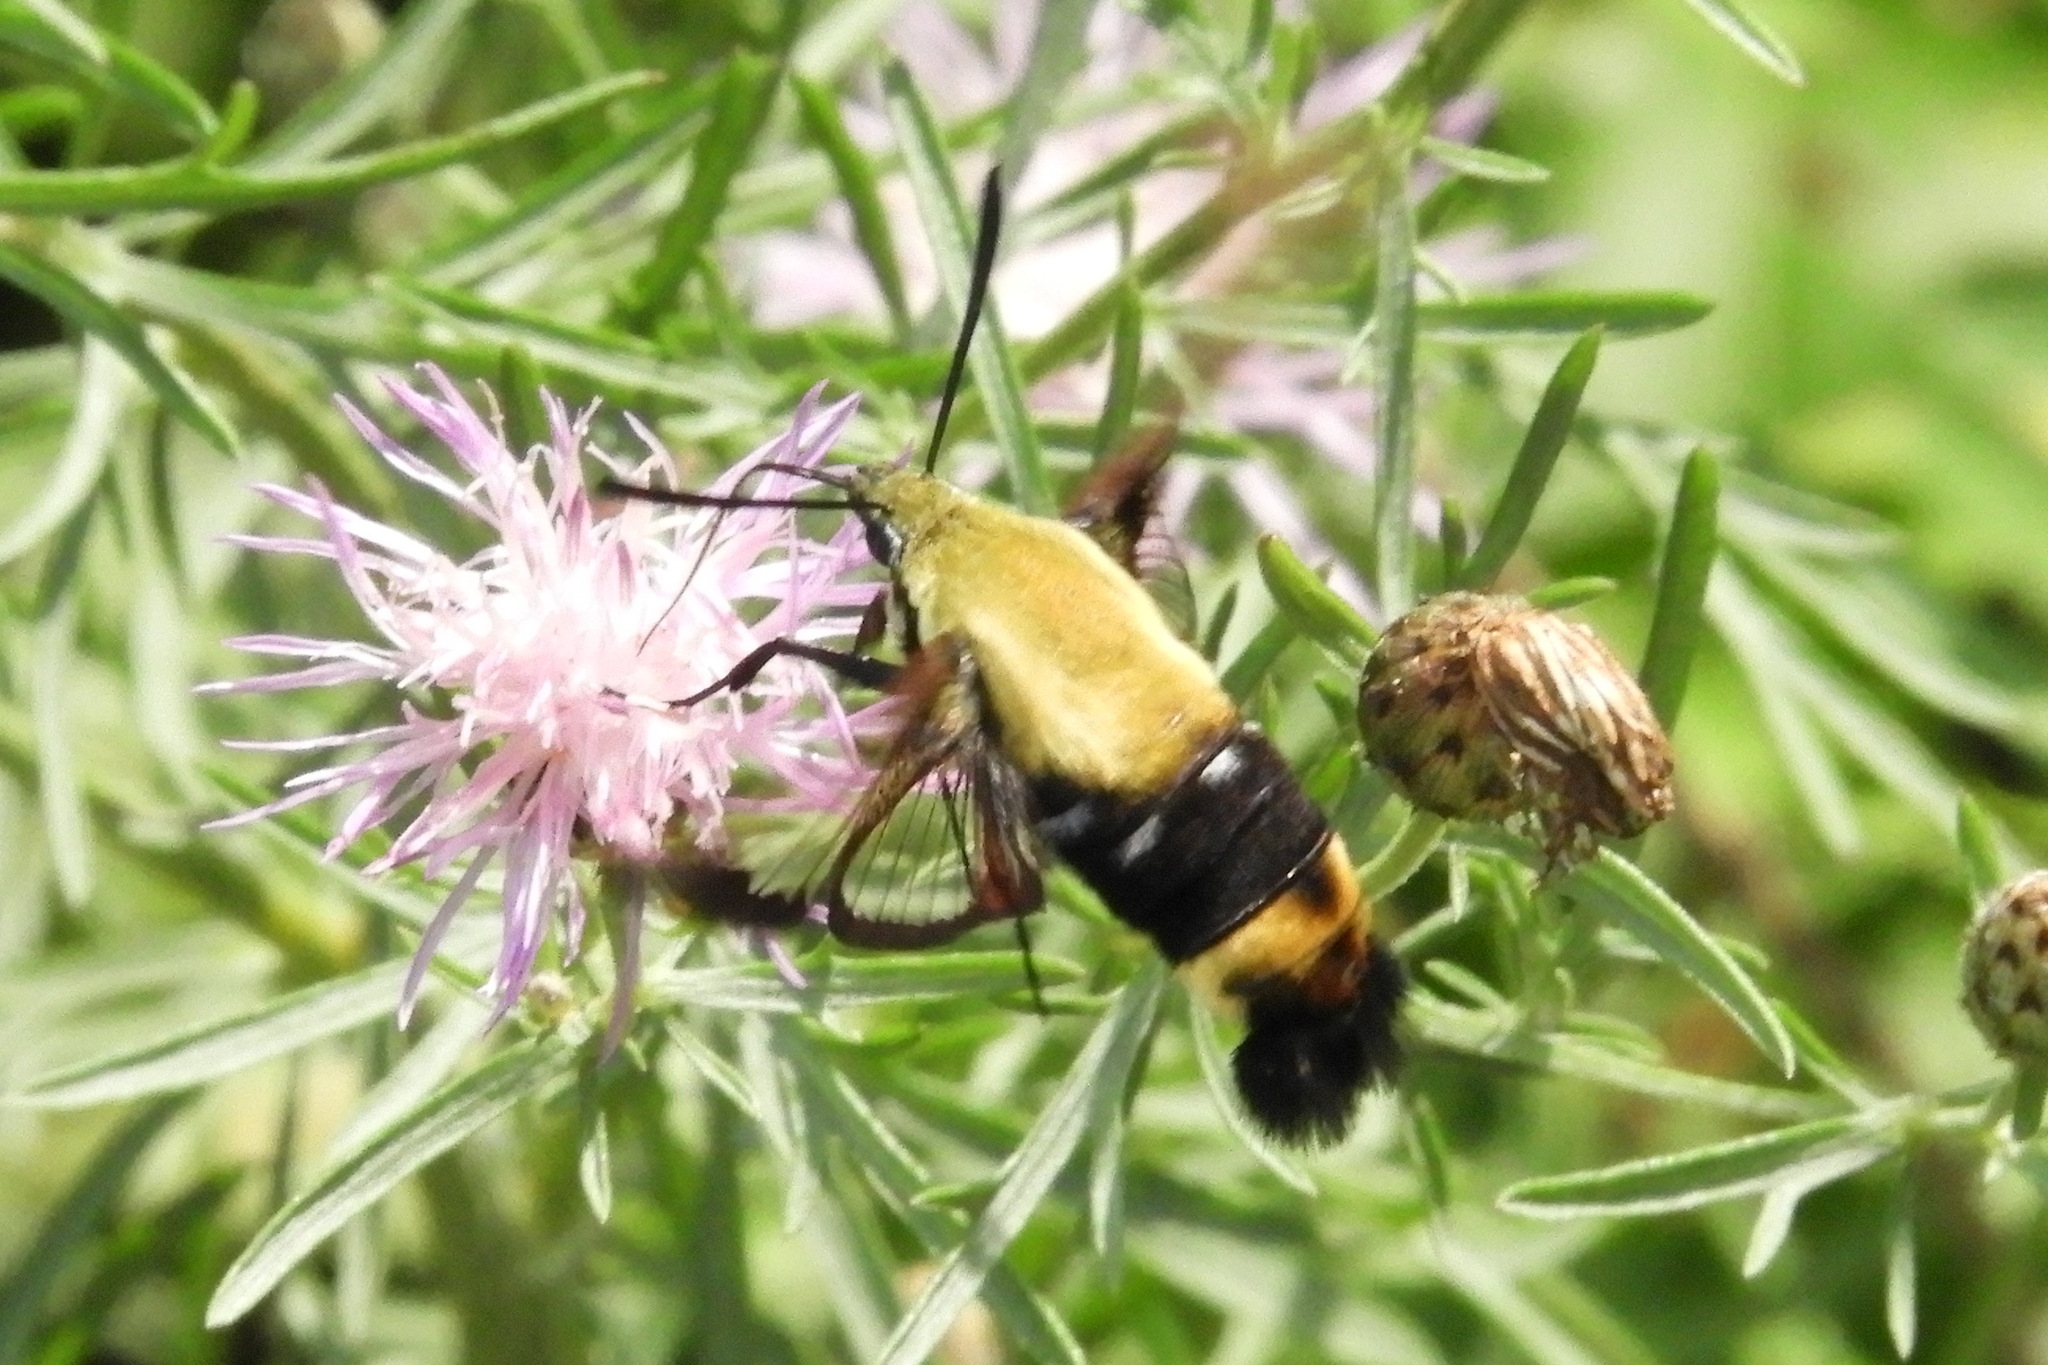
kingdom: Animalia
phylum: Arthropoda
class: Insecta
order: Lepidoptera
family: Sphingidae
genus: Hemaris
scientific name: Hemaris diffinis
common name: Bumblebee moth
